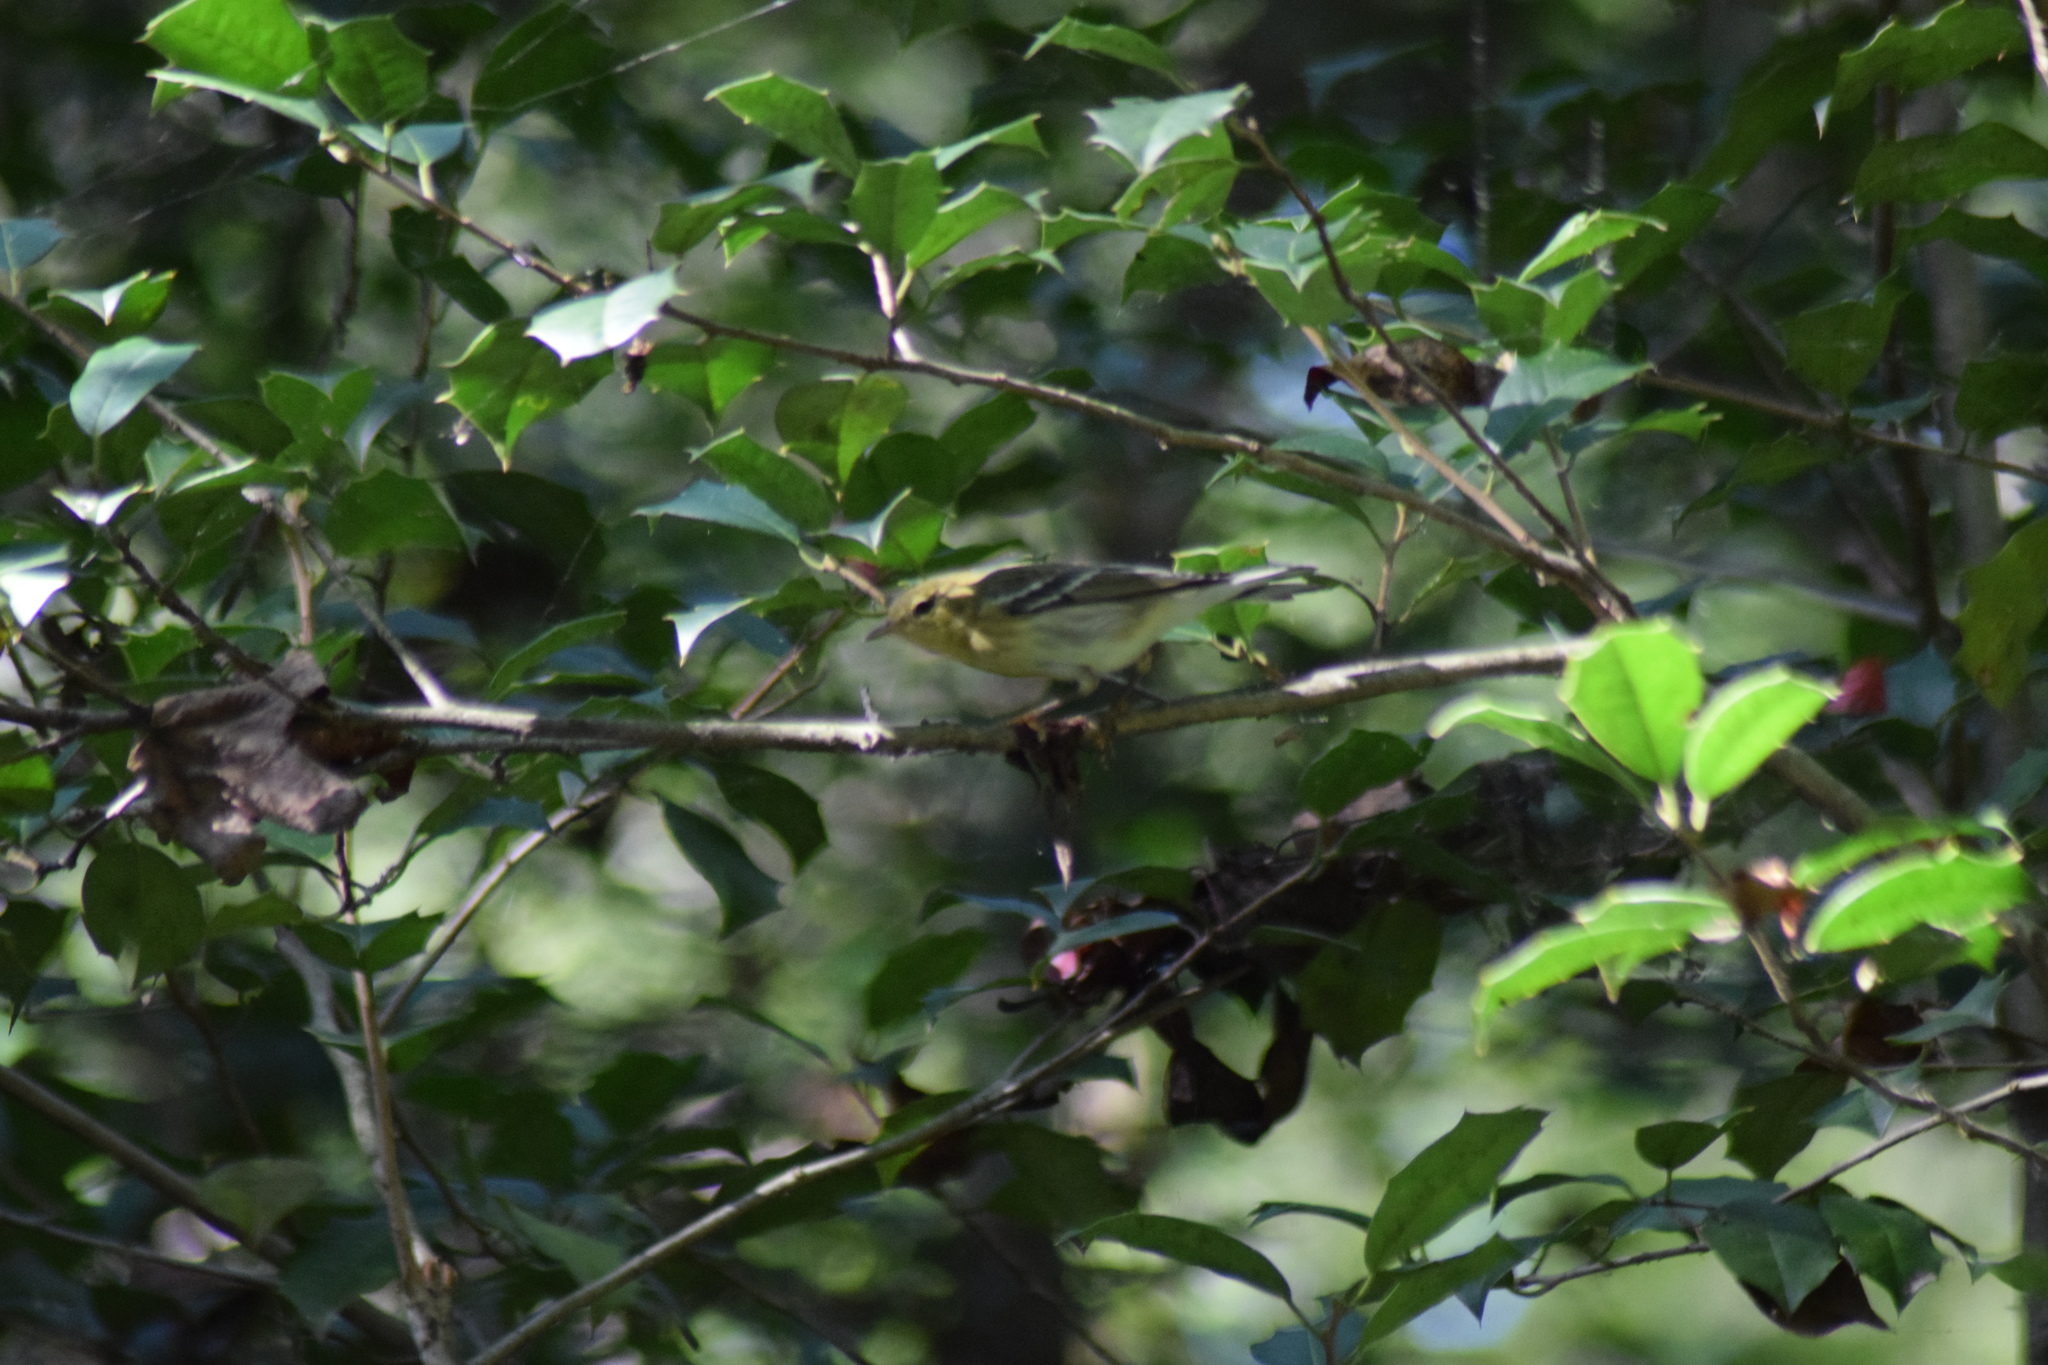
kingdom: Animalia
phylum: Chordata
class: Aves
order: Passeriformes
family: Parulidae
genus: Setophaga
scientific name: Setophaga striata
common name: Blackpoll warbler
